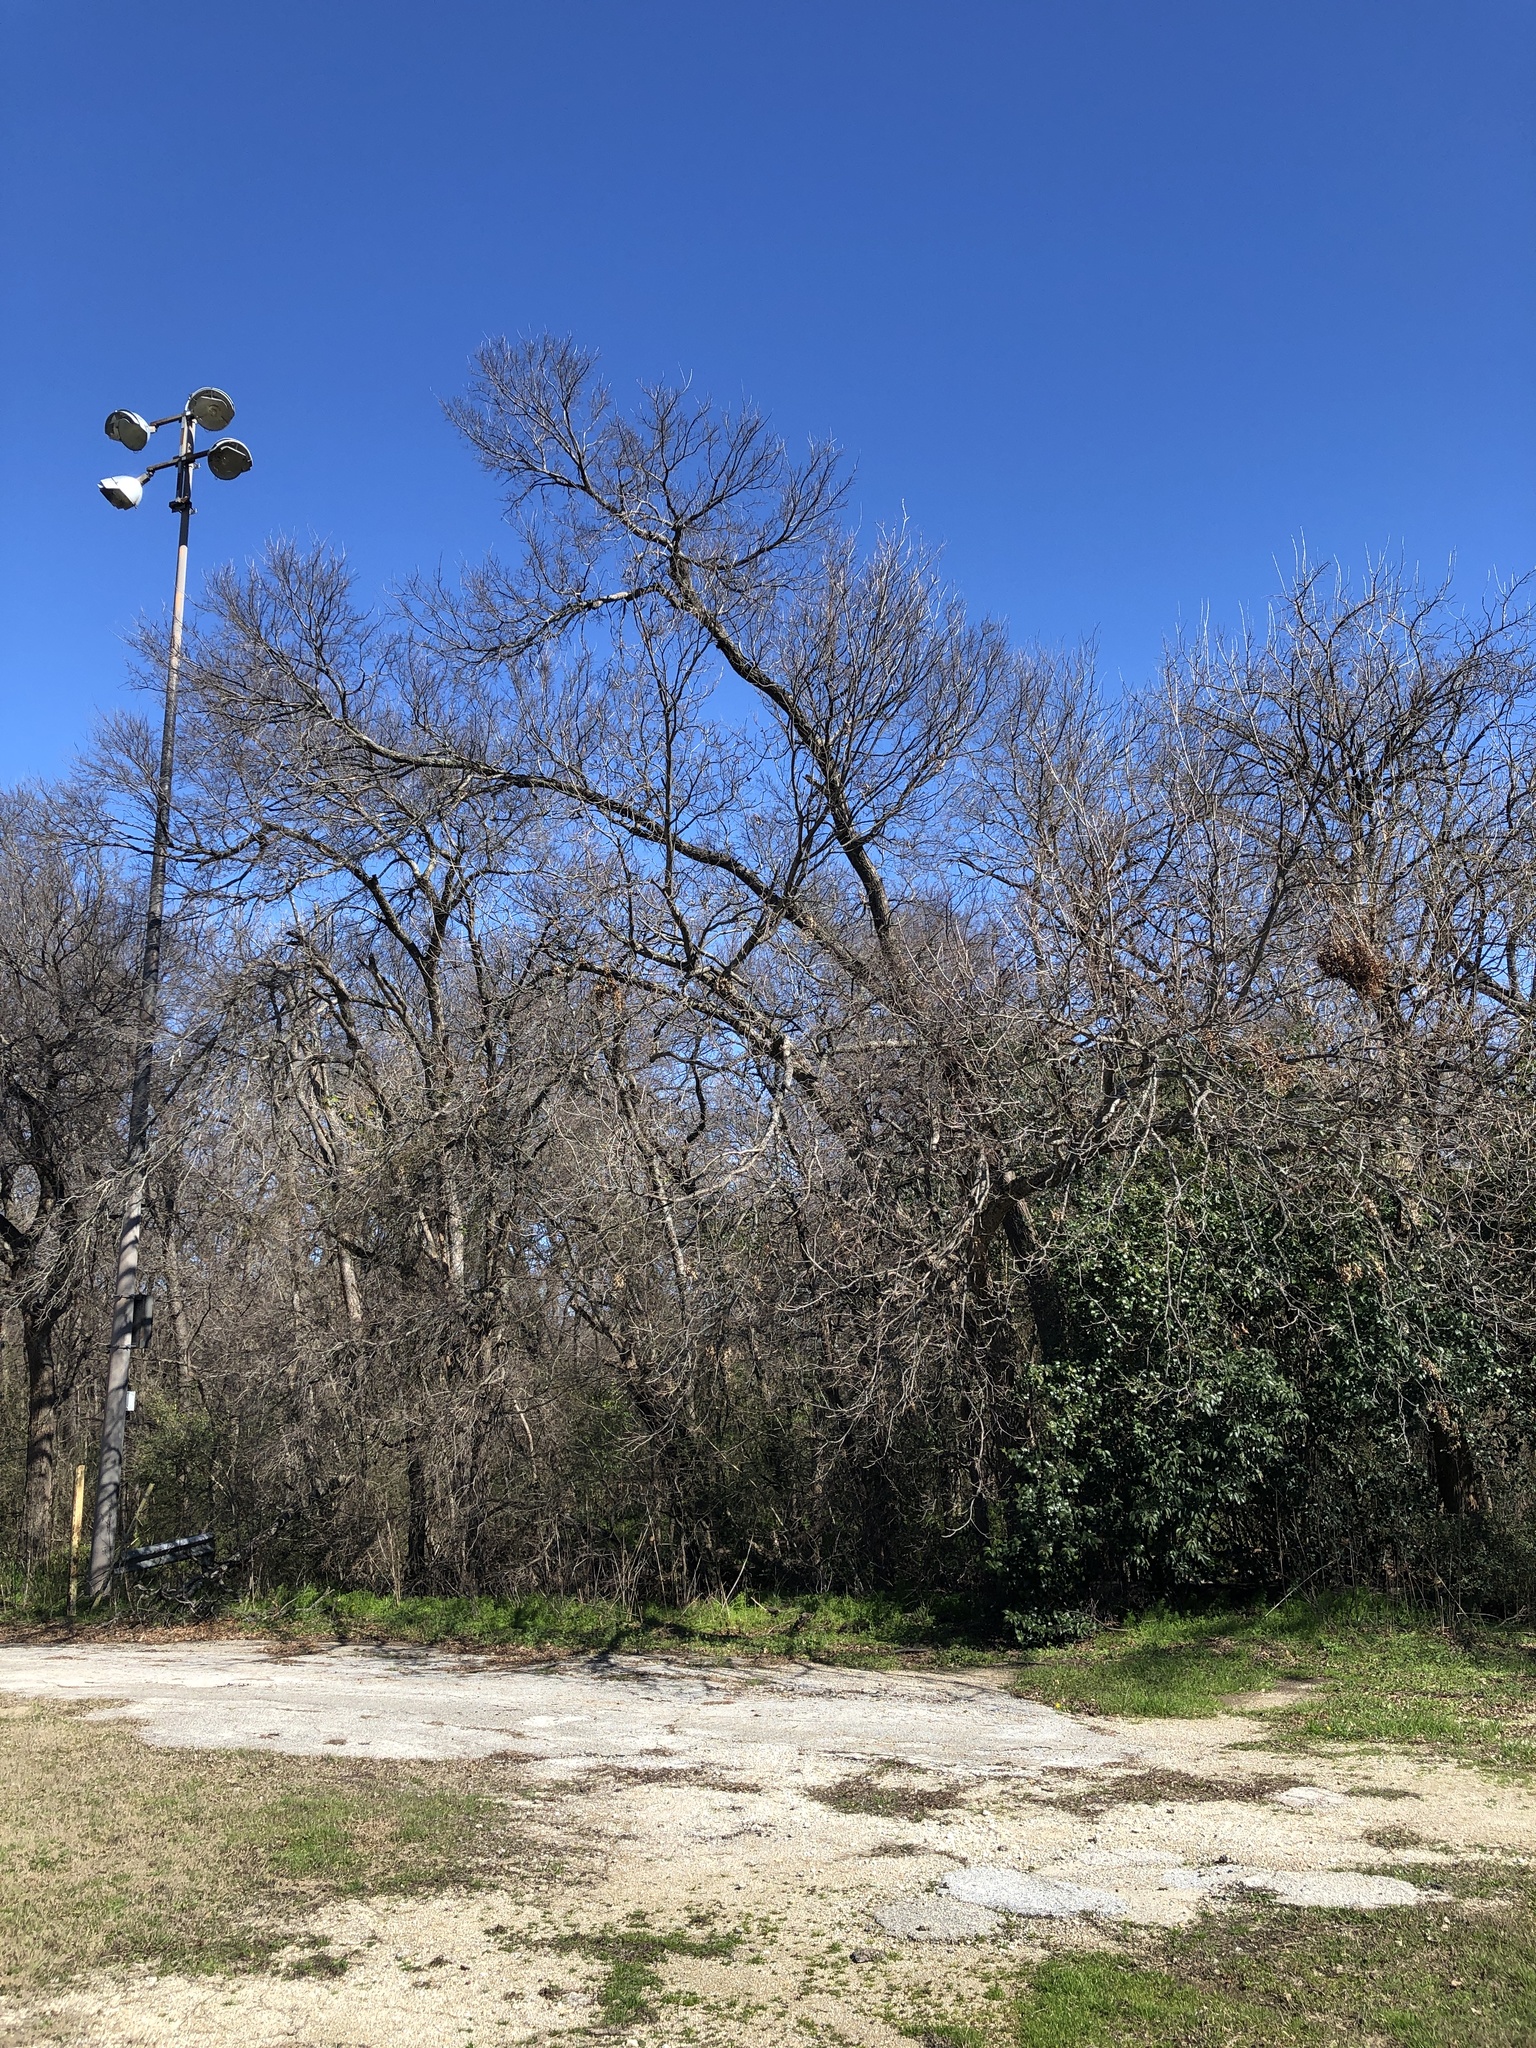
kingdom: Plantae
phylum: Tracheophyta
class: Magnoliopsida
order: Fagales
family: Juglandaceae
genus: Carya
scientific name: Carya illinoinensis
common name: Pecan
